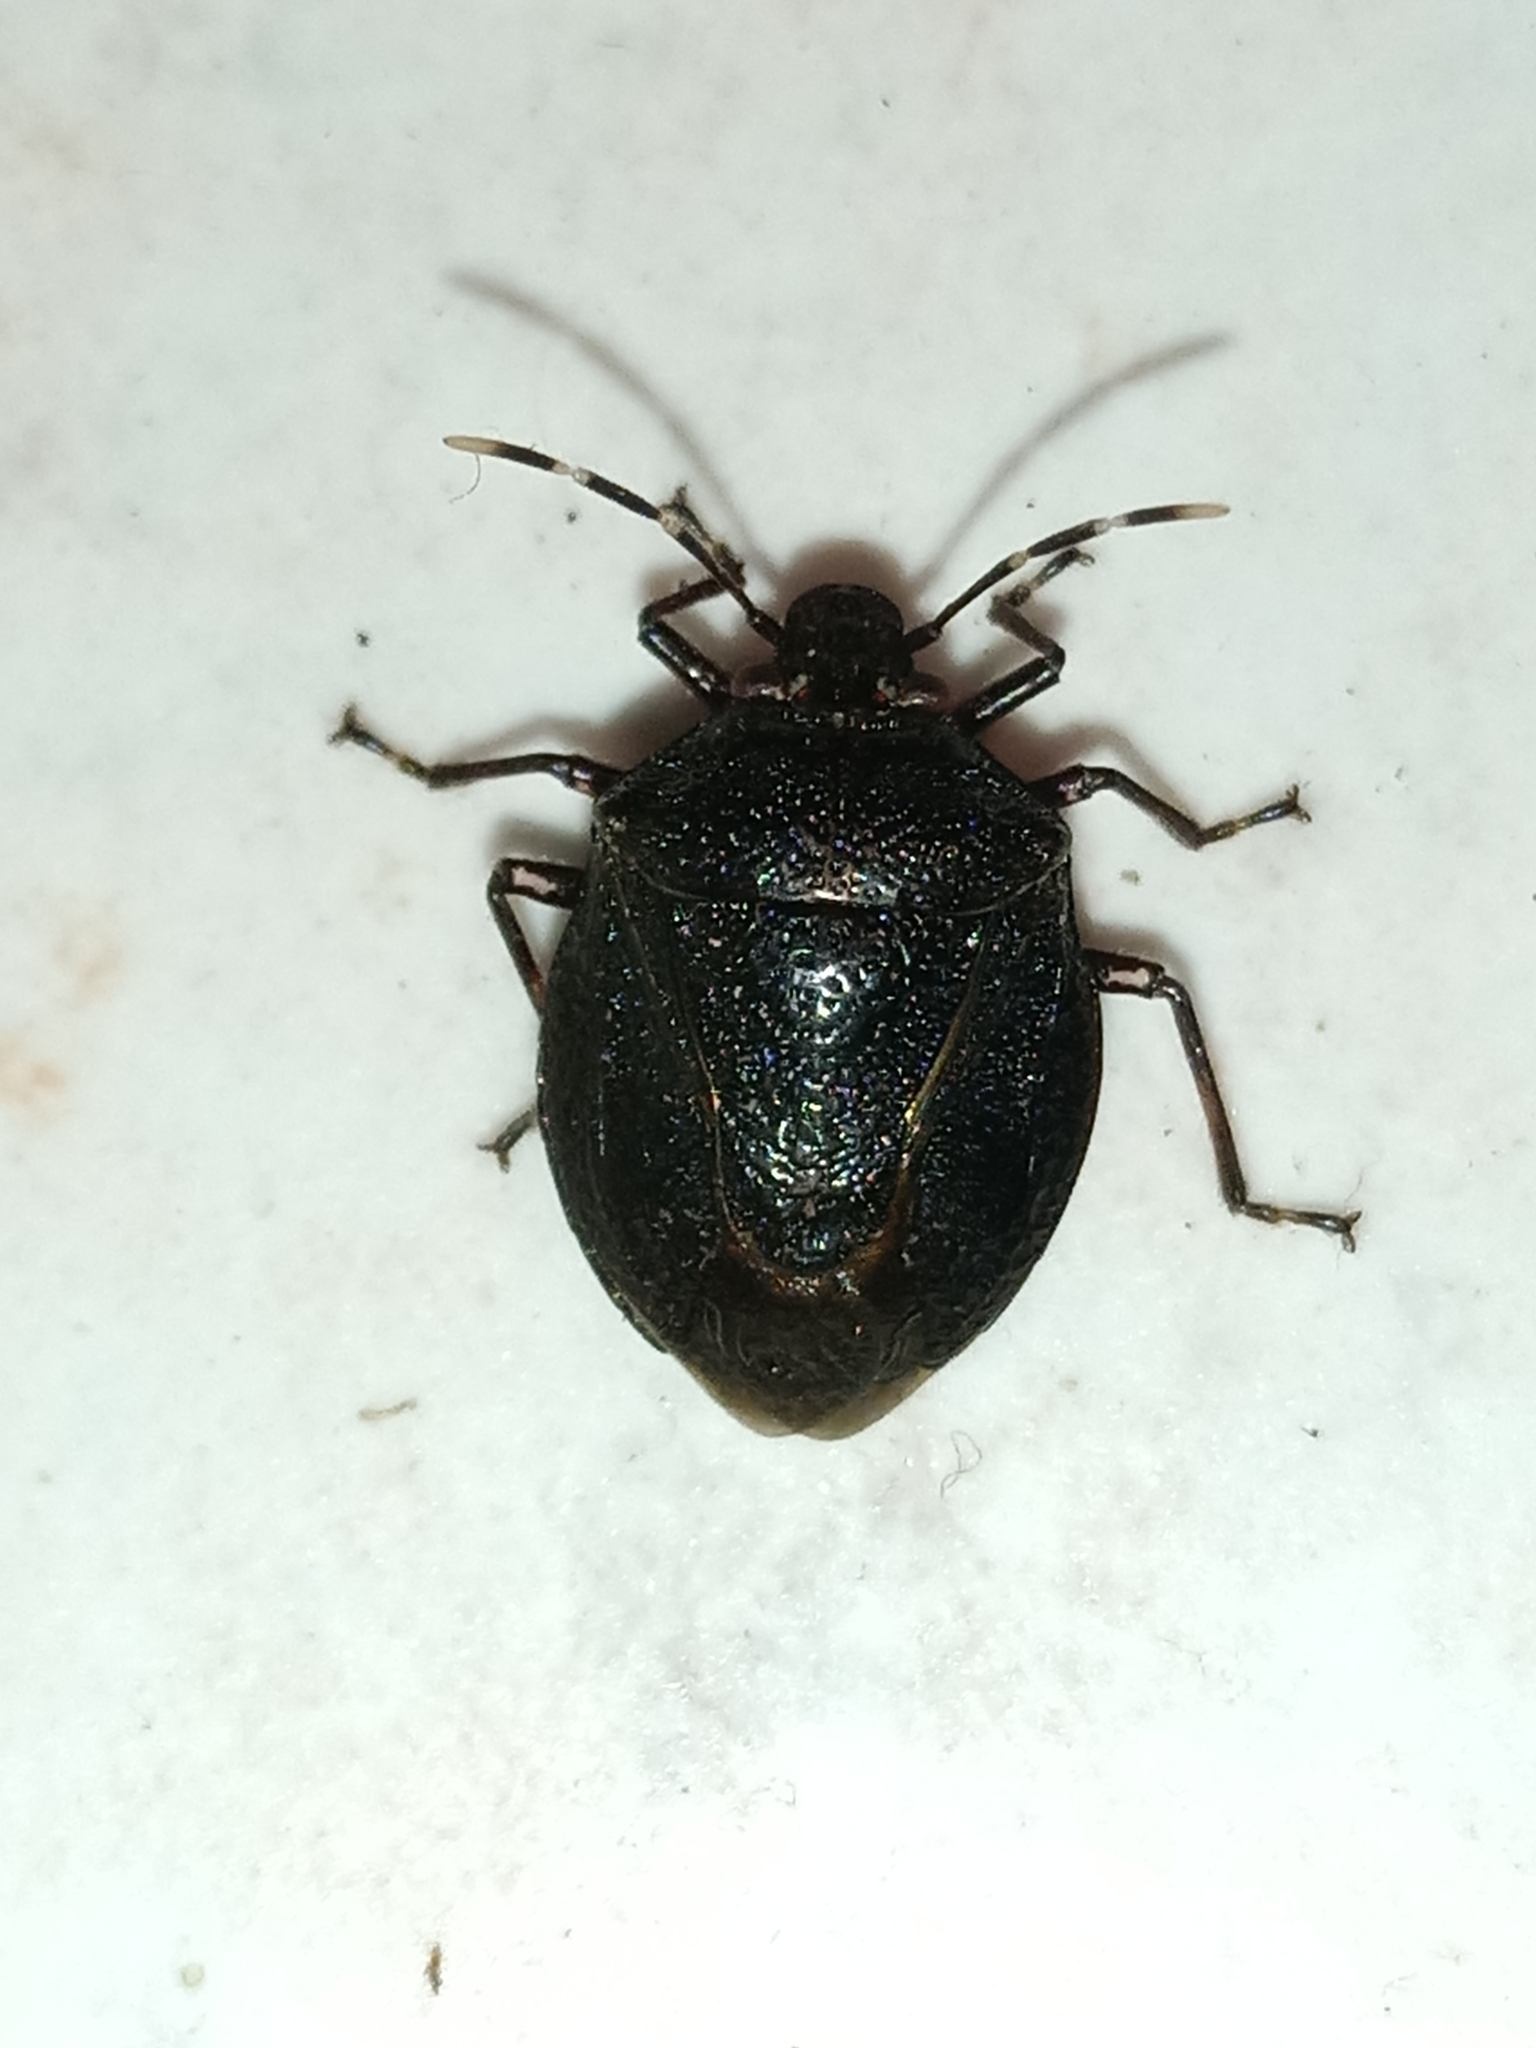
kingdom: Animalia
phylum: Arthropoda
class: Insecta
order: Hemiptera
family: Pentatomidae
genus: Antiteuchus
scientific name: Antiteuchus mixtus
